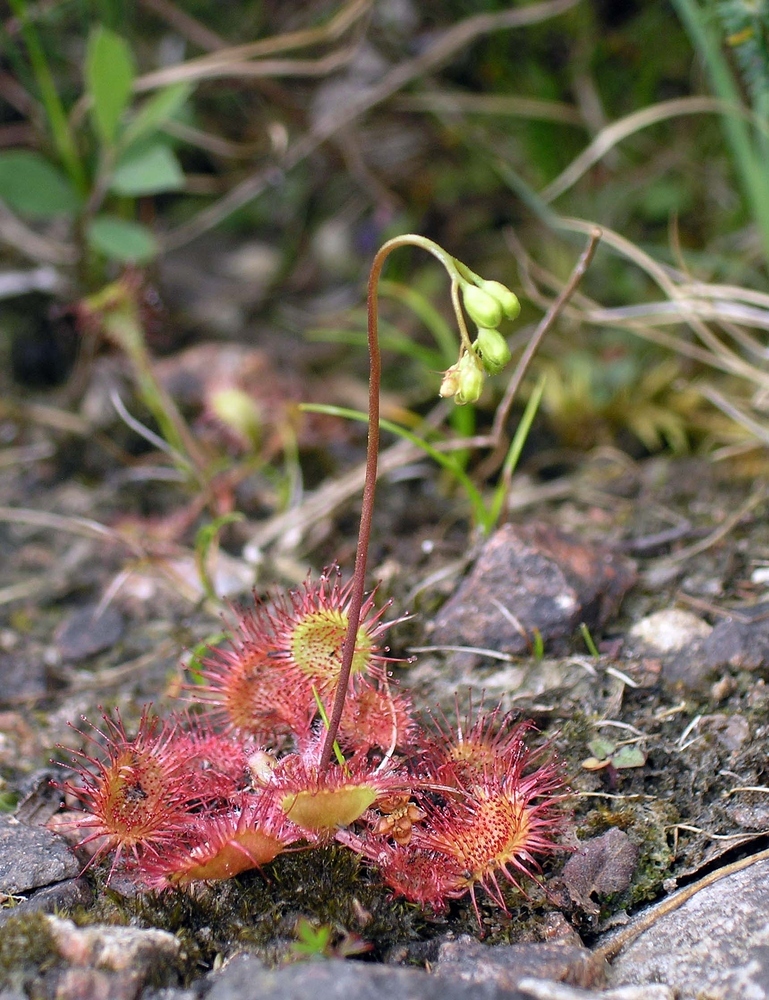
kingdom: Plantae
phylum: Tracheophyta
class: Magnoliopsida
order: Caryophyllales
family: Droseraceae
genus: Drosera
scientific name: Drosera rotundifolia
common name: Round-leaved sundew
